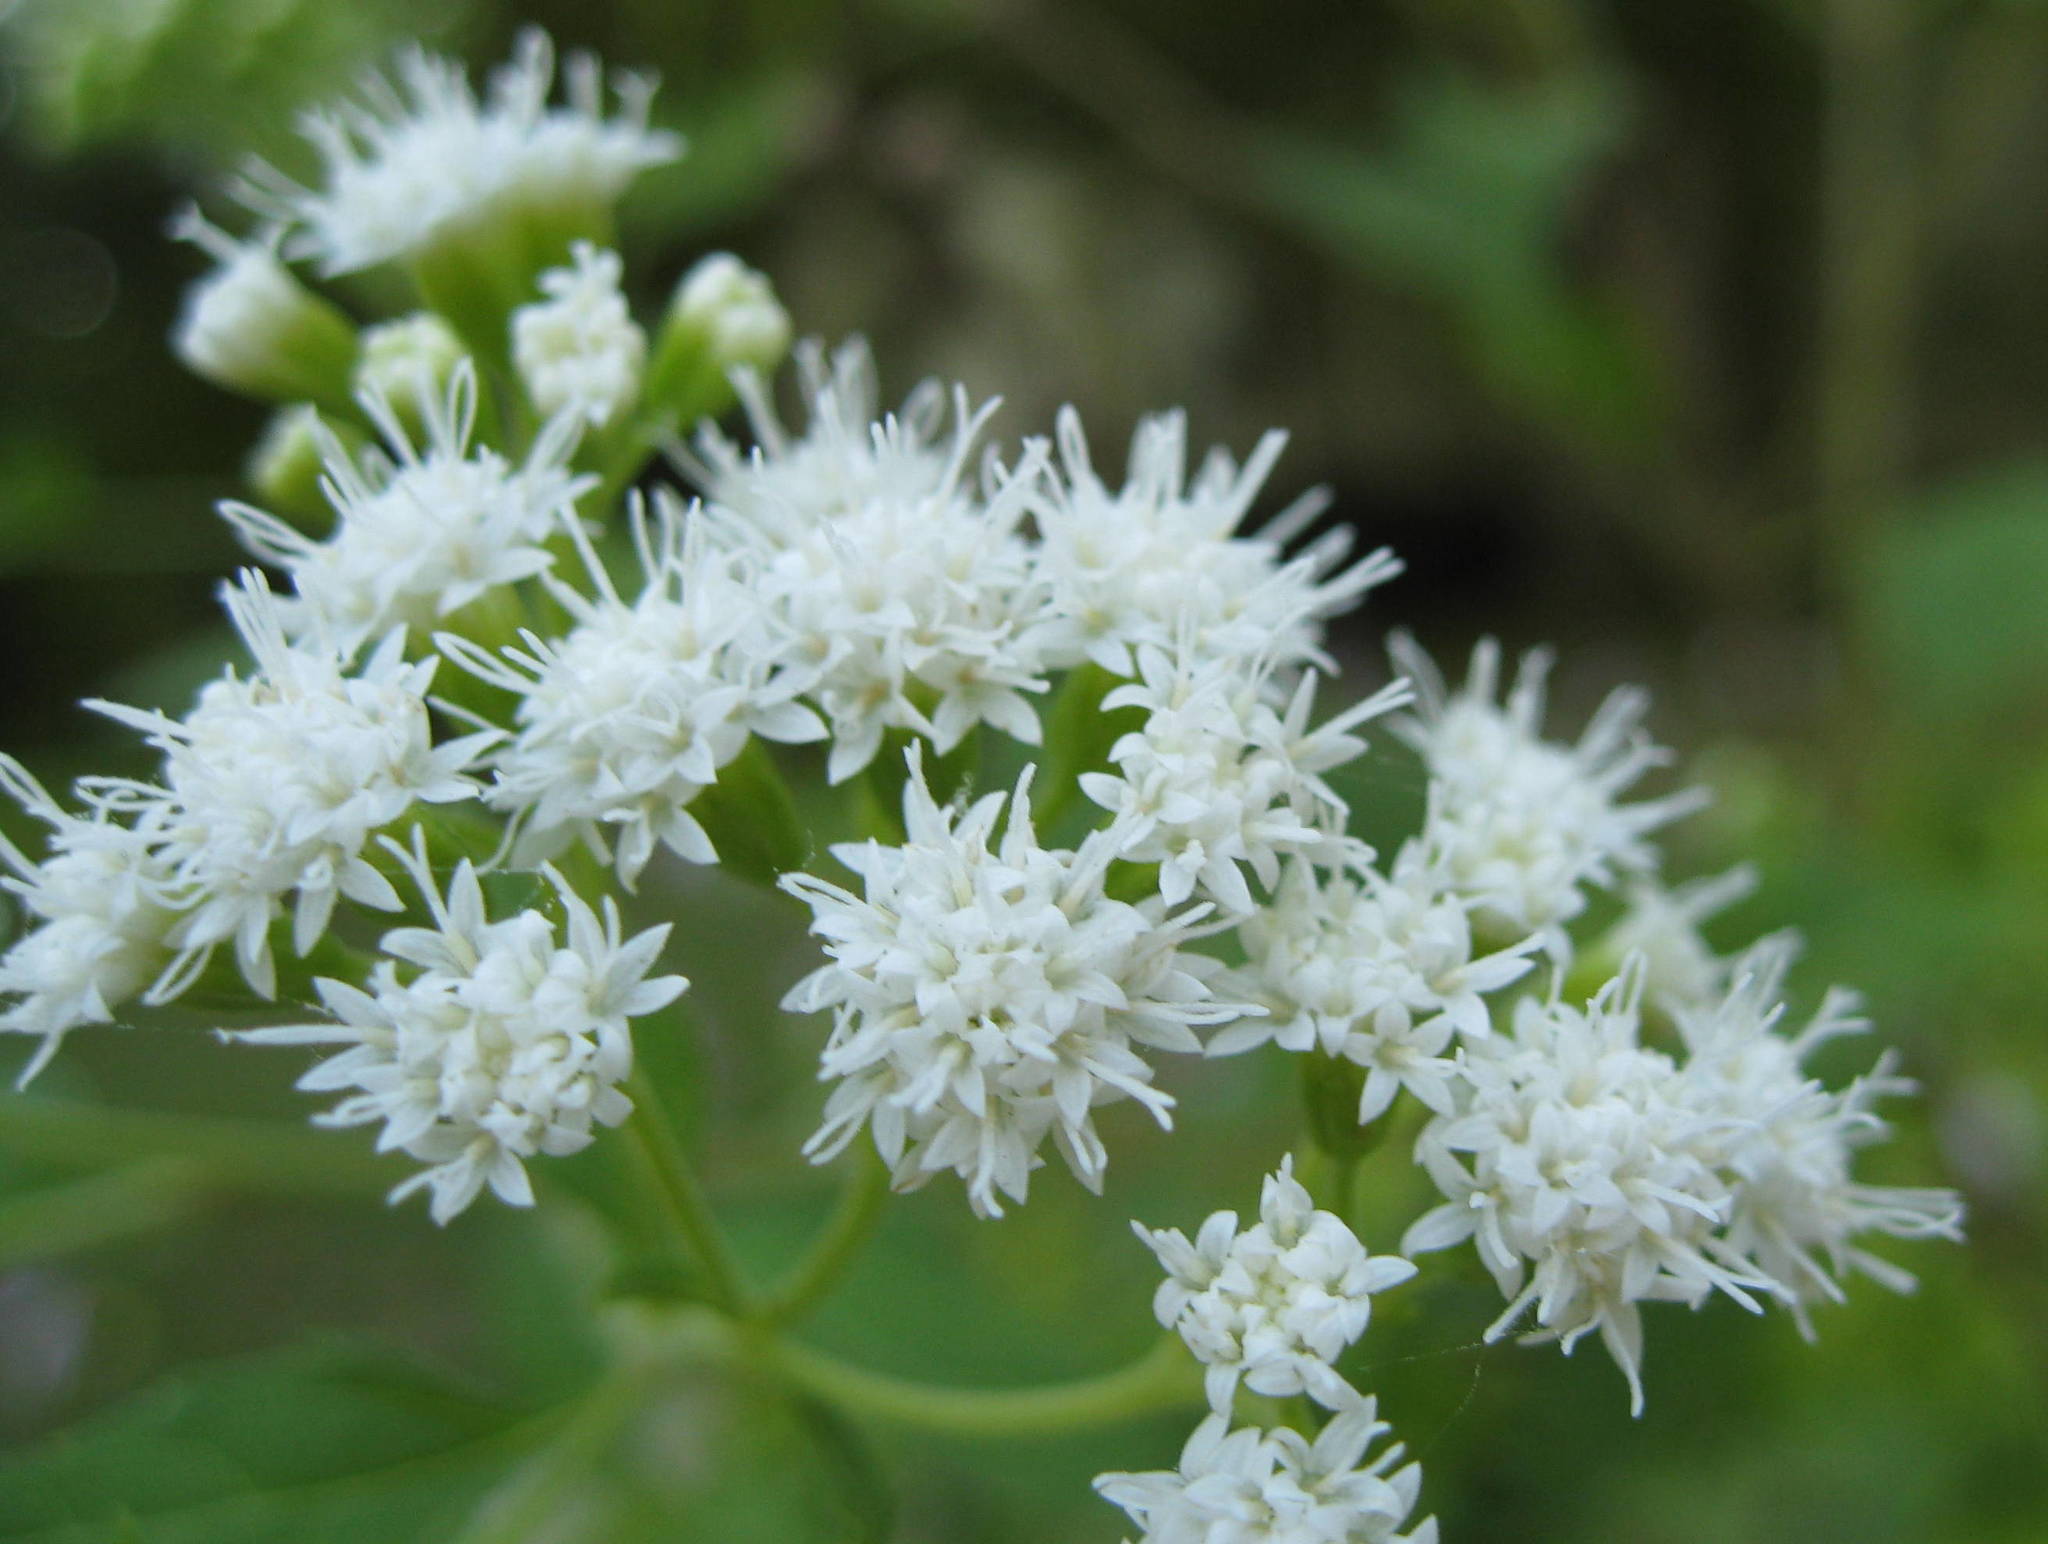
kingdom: Plantae
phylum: Tracheophyta
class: Magnoliopsida
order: Asterales
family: Asteraceae
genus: Ageratina
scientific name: Ageratina altissima
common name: White snakeroot
